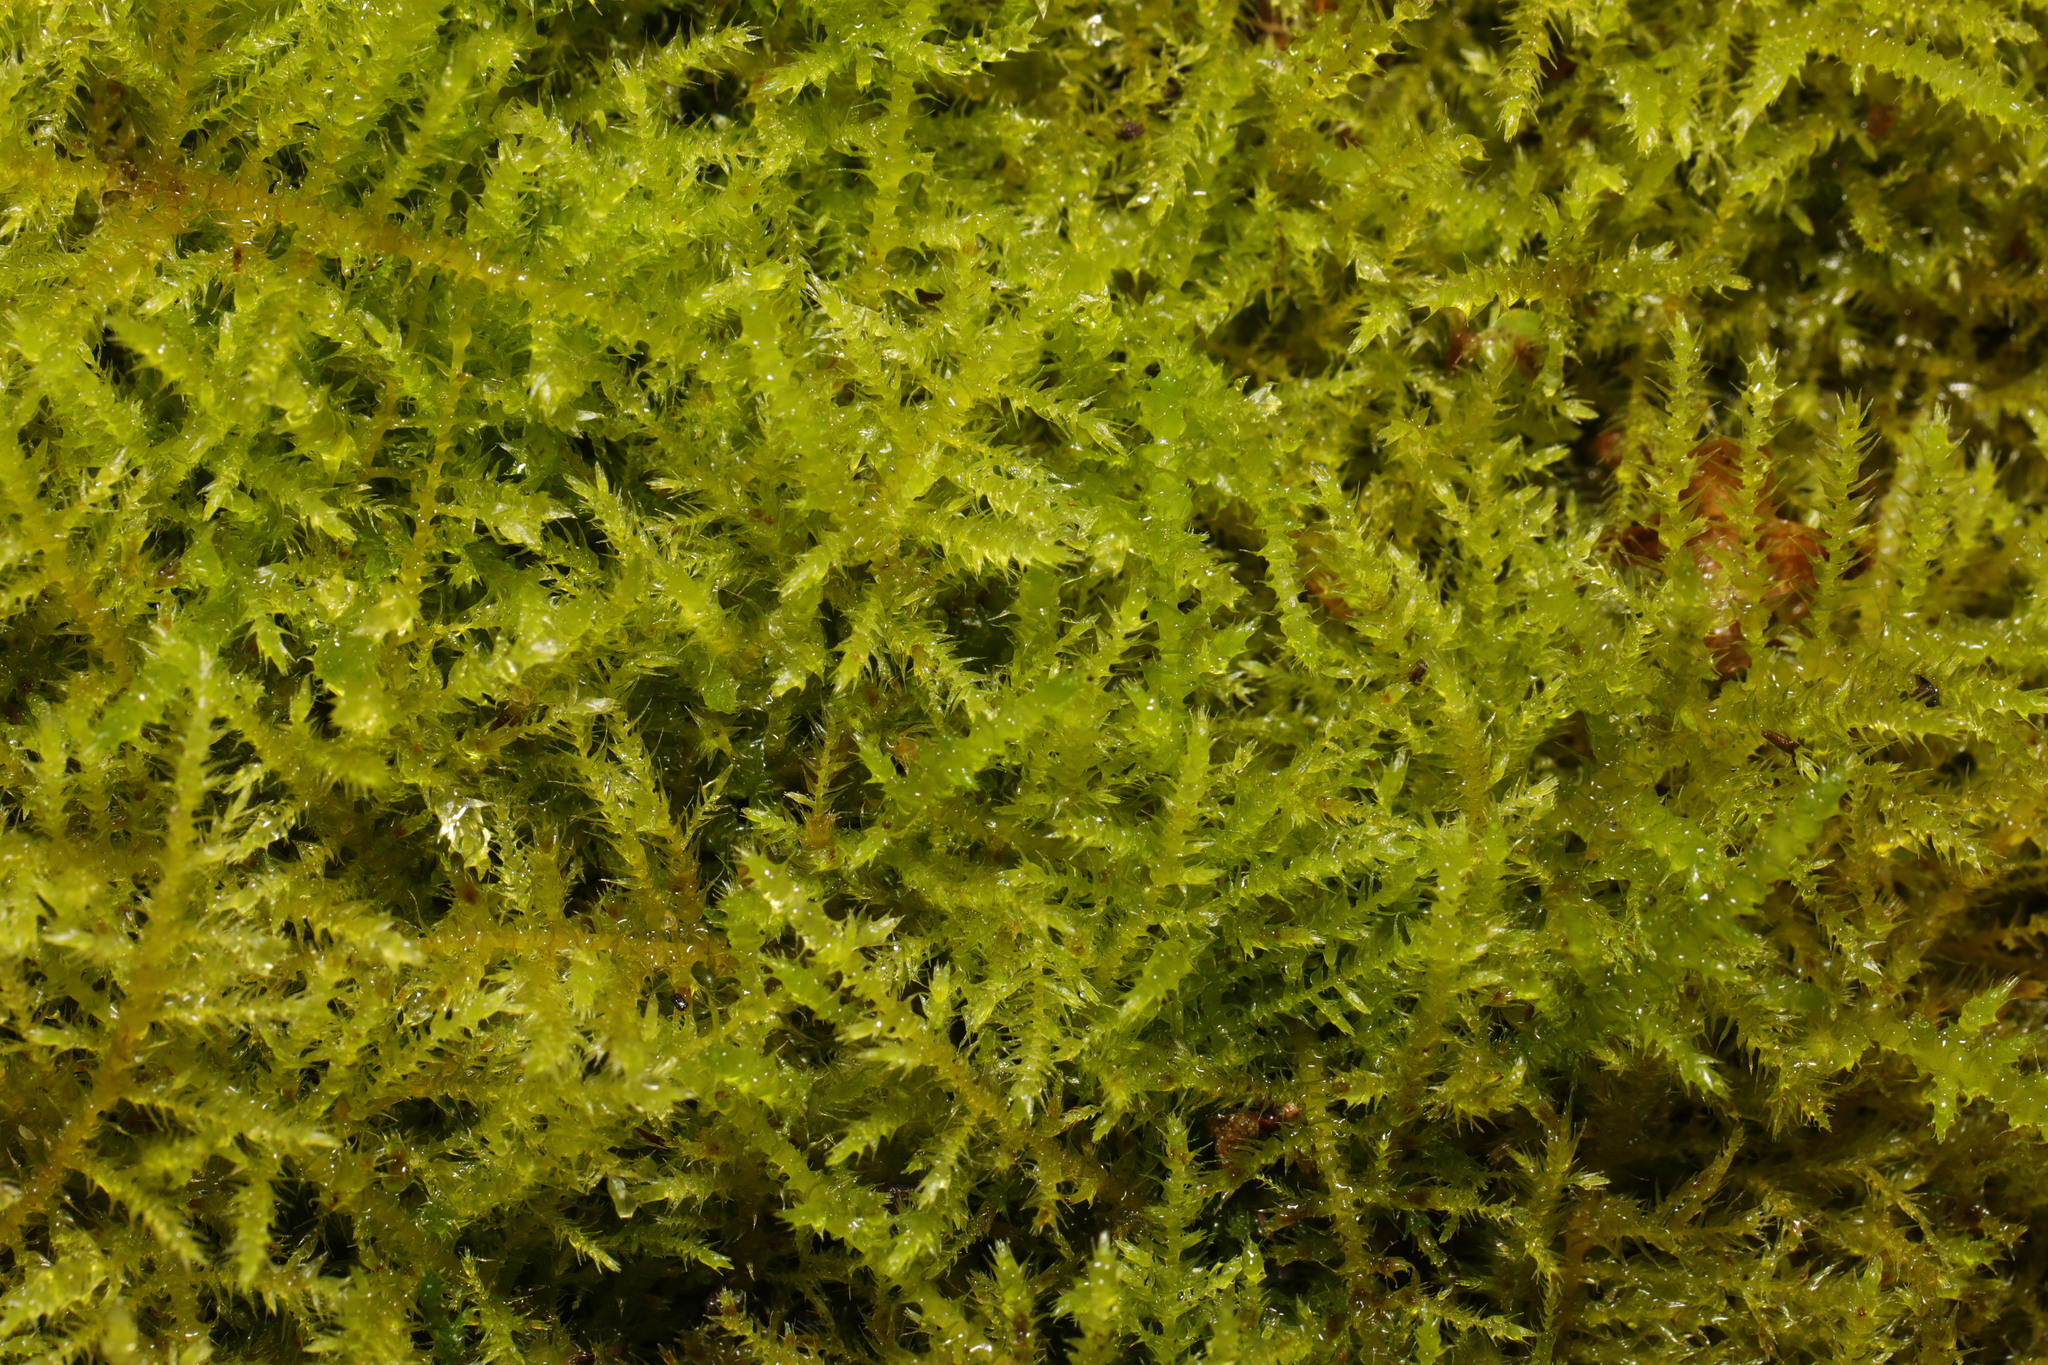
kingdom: Plantae
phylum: Bryophyta
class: Bryopsida
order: Hypnales
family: Brachytheciaceae
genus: Kindbergia
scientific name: Kindbergia praelonga
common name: Slender beaked moss
